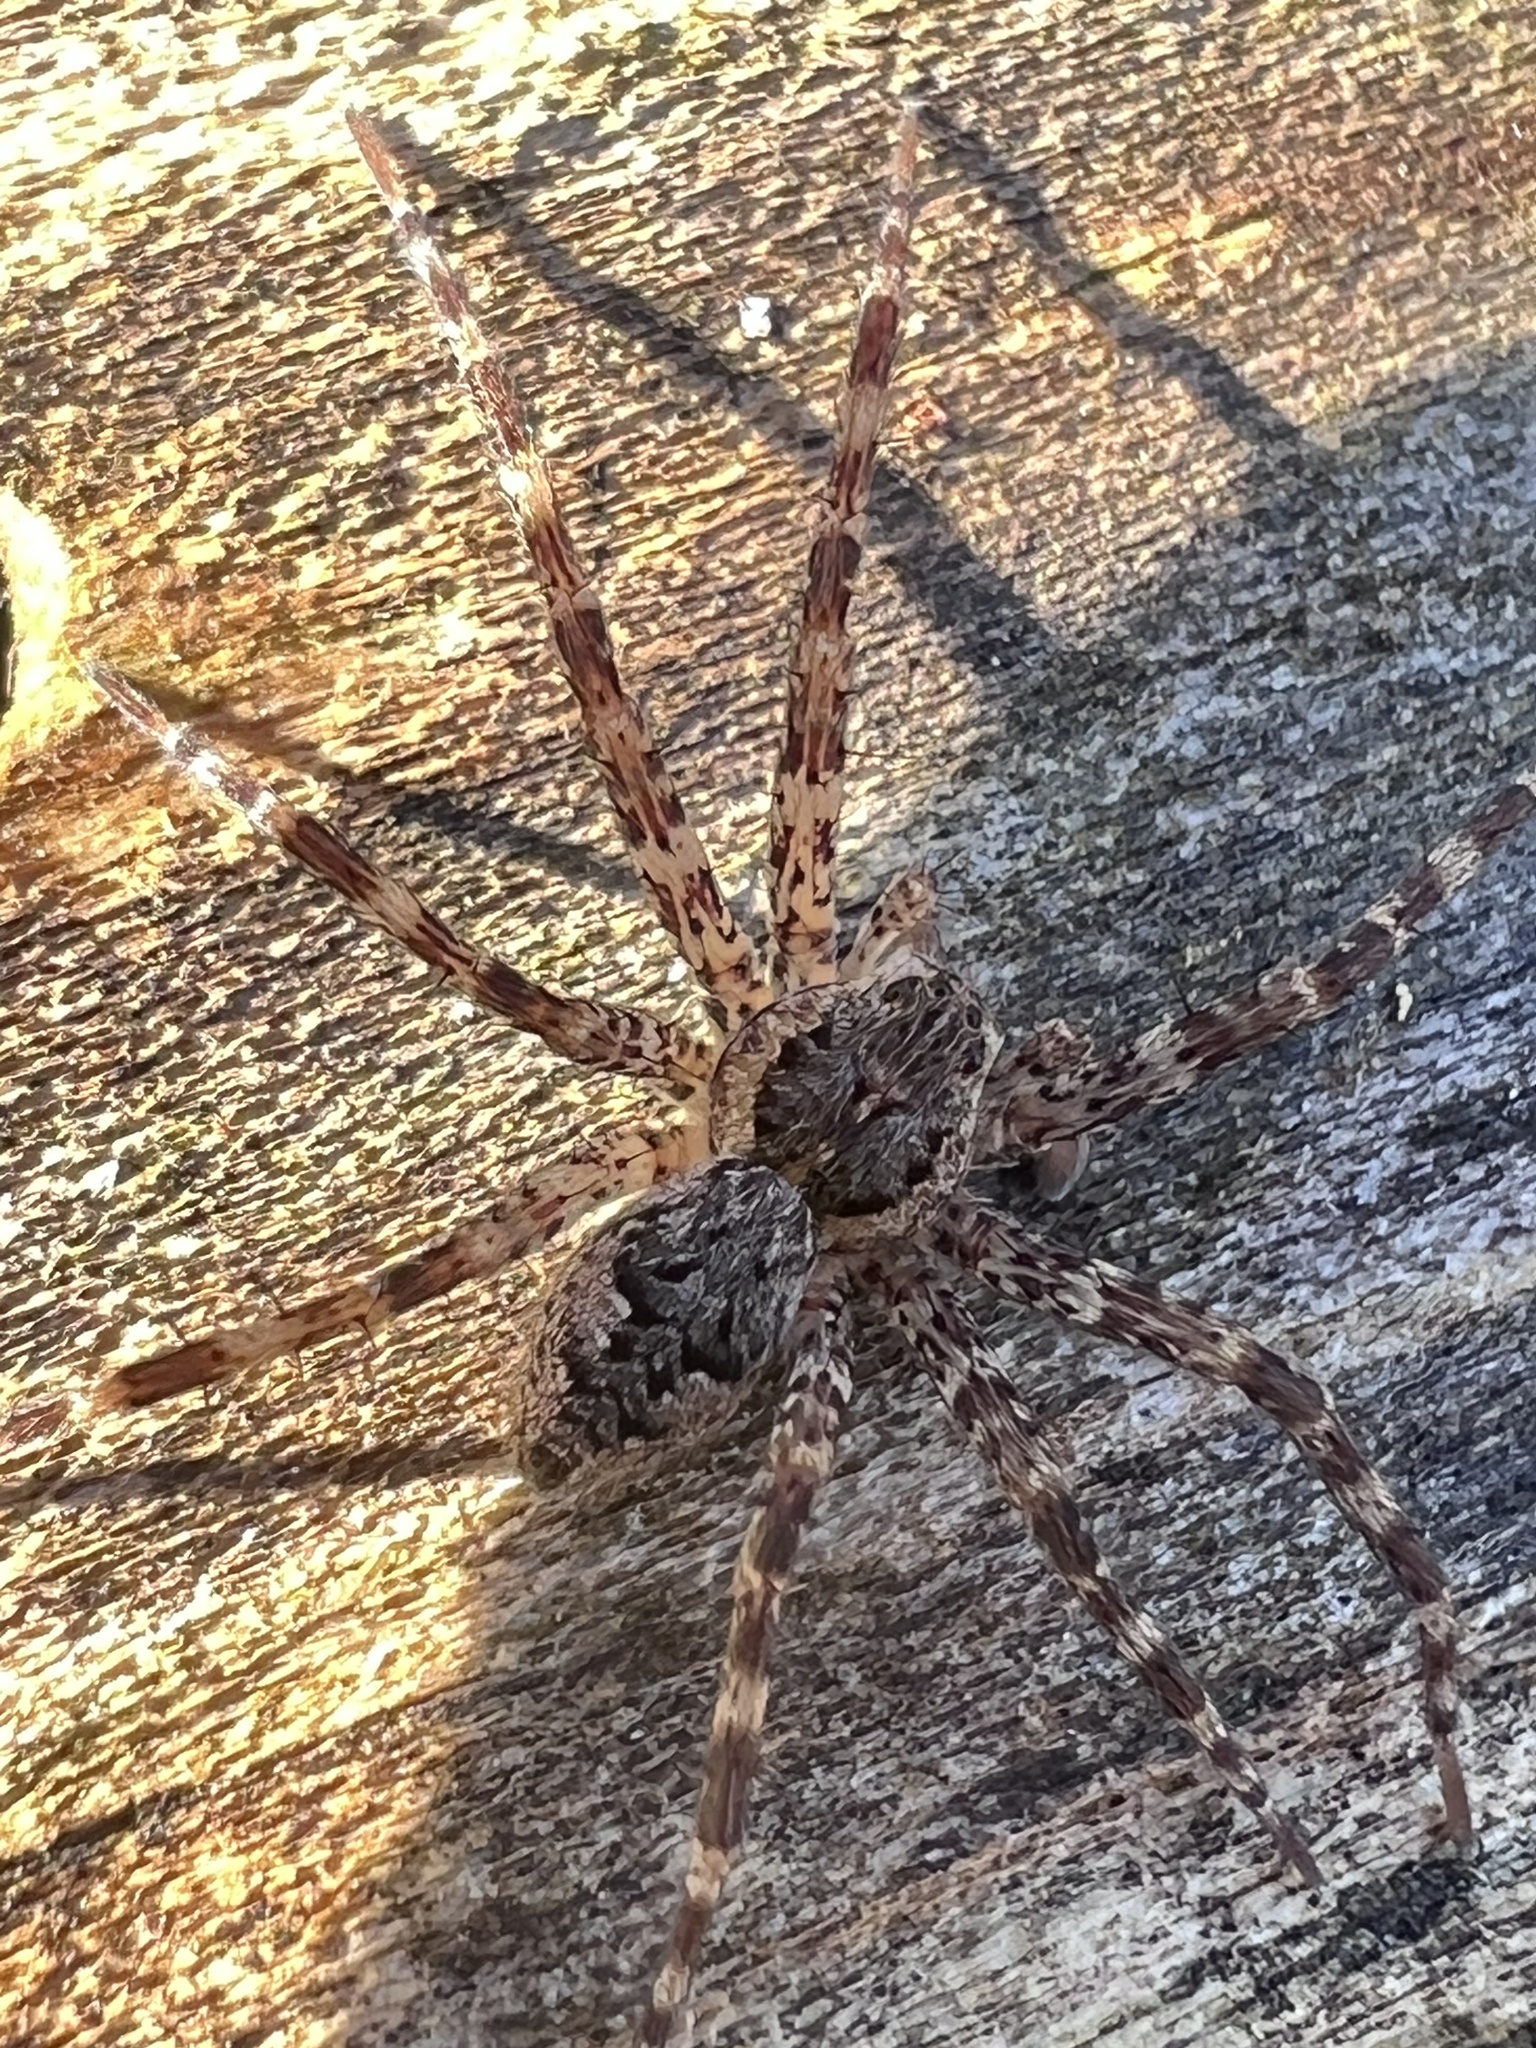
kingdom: Animalia
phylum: Arthropoda
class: Arachnida
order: Araneae
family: Pisauridae
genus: Dolomedes
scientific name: Dolomedes tenebrosus
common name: Dark fishing spider
